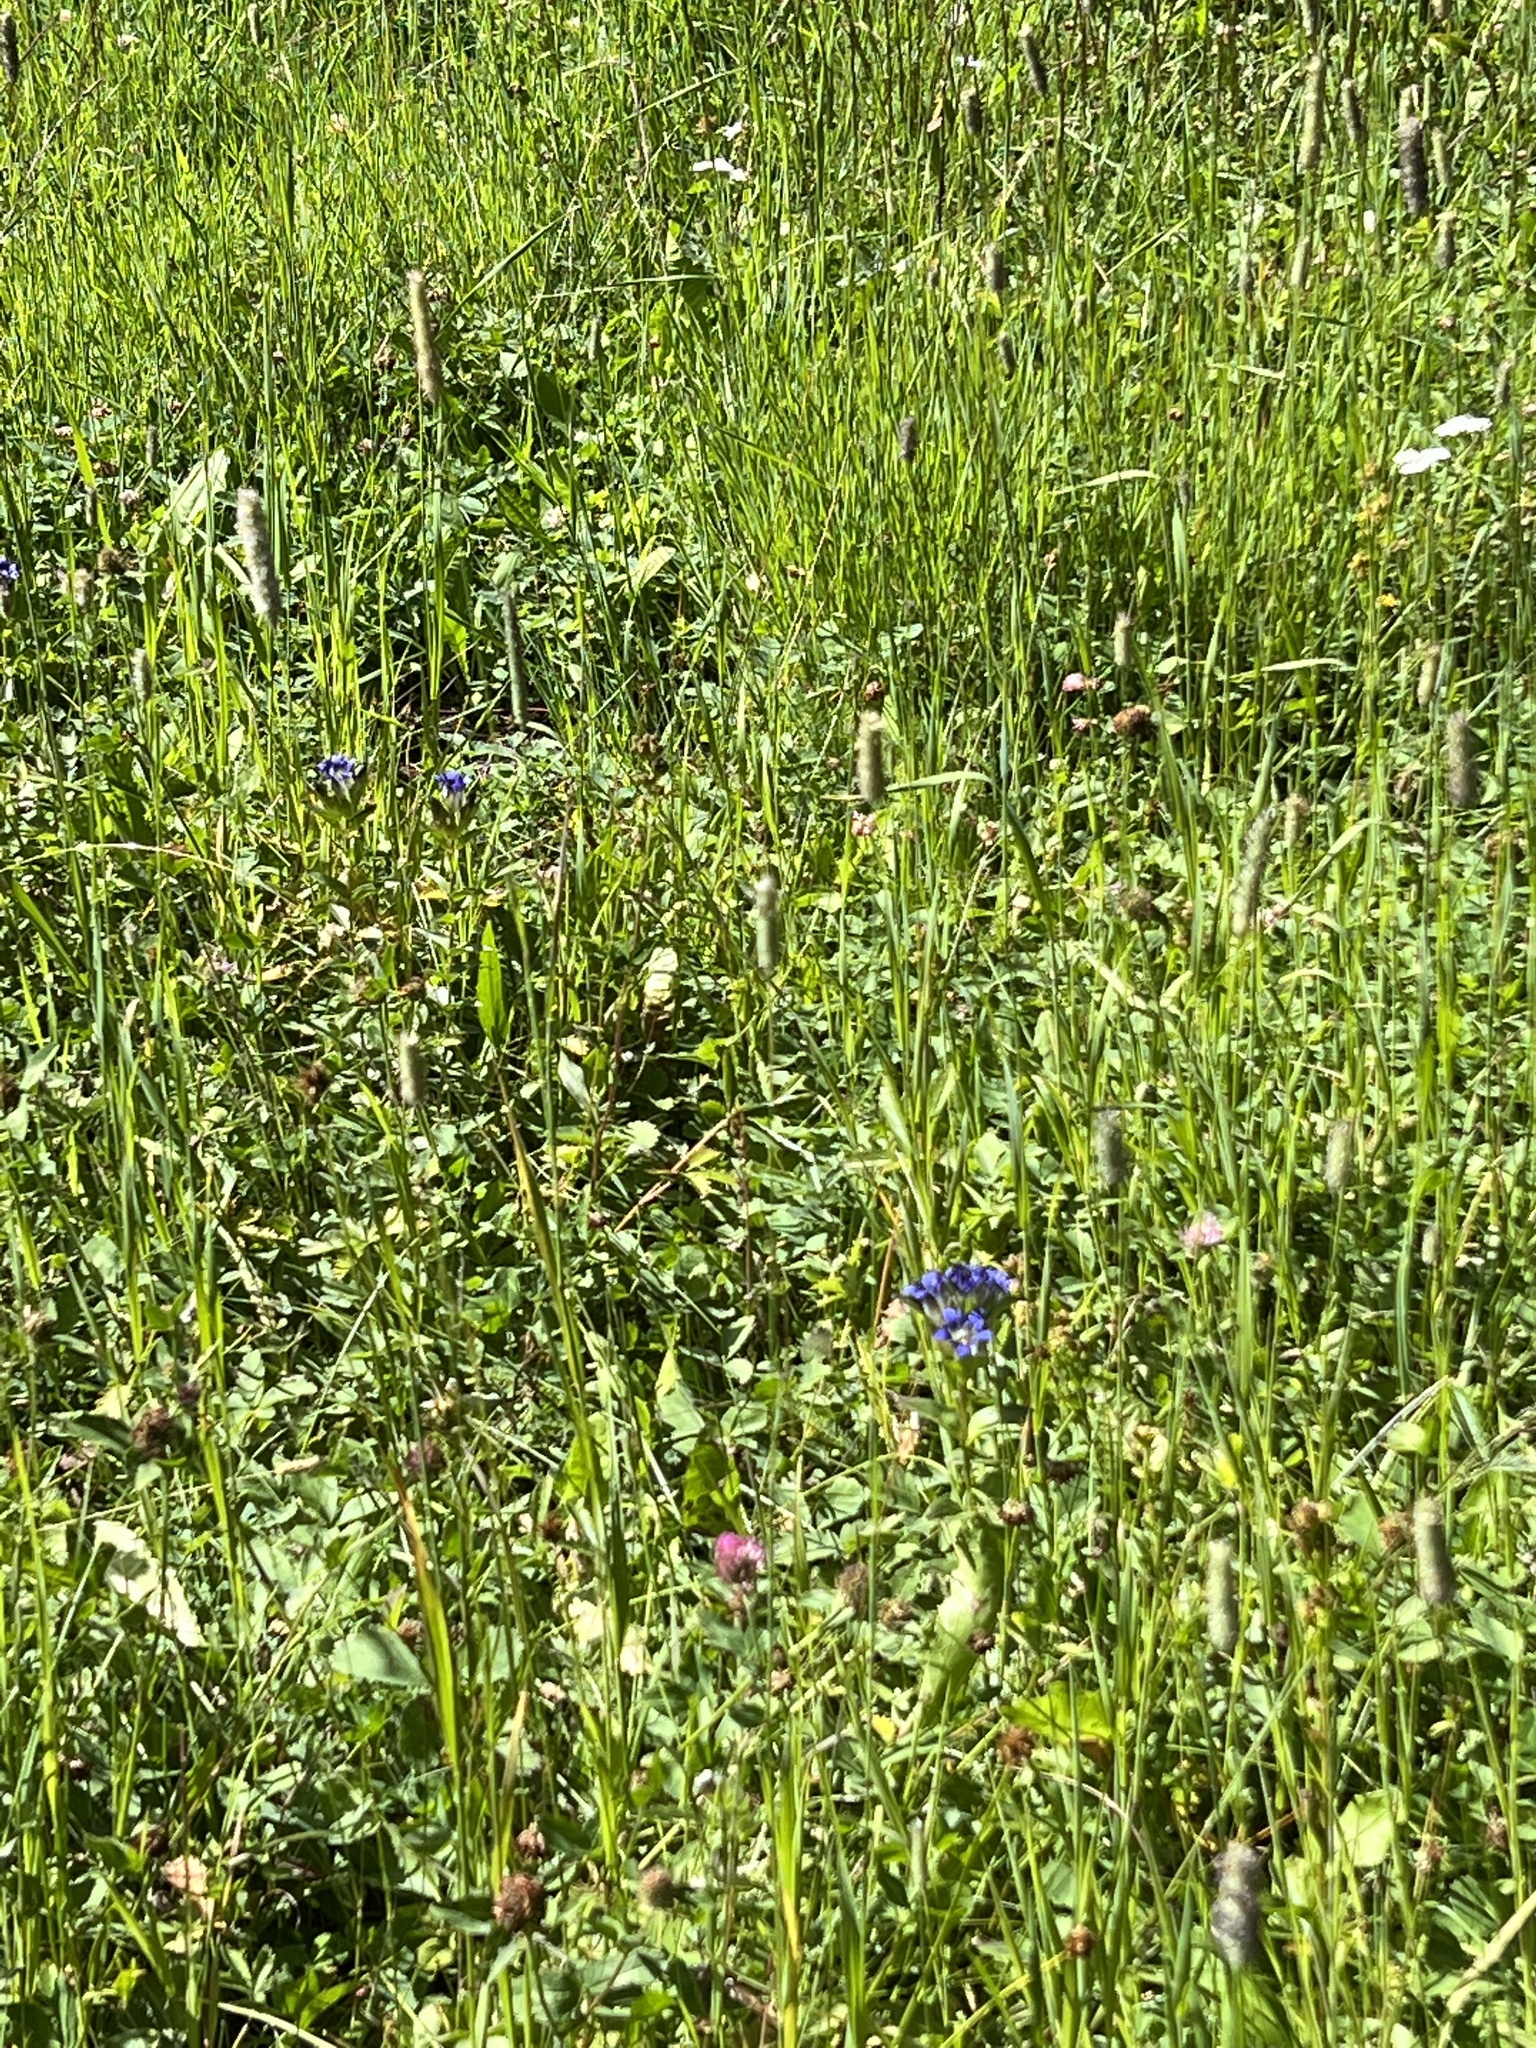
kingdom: Plantae
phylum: Tracheophyta
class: Magnoliopsida
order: Gentianales
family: Gentianaceae
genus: Gentiana
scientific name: Gentiana parryi
